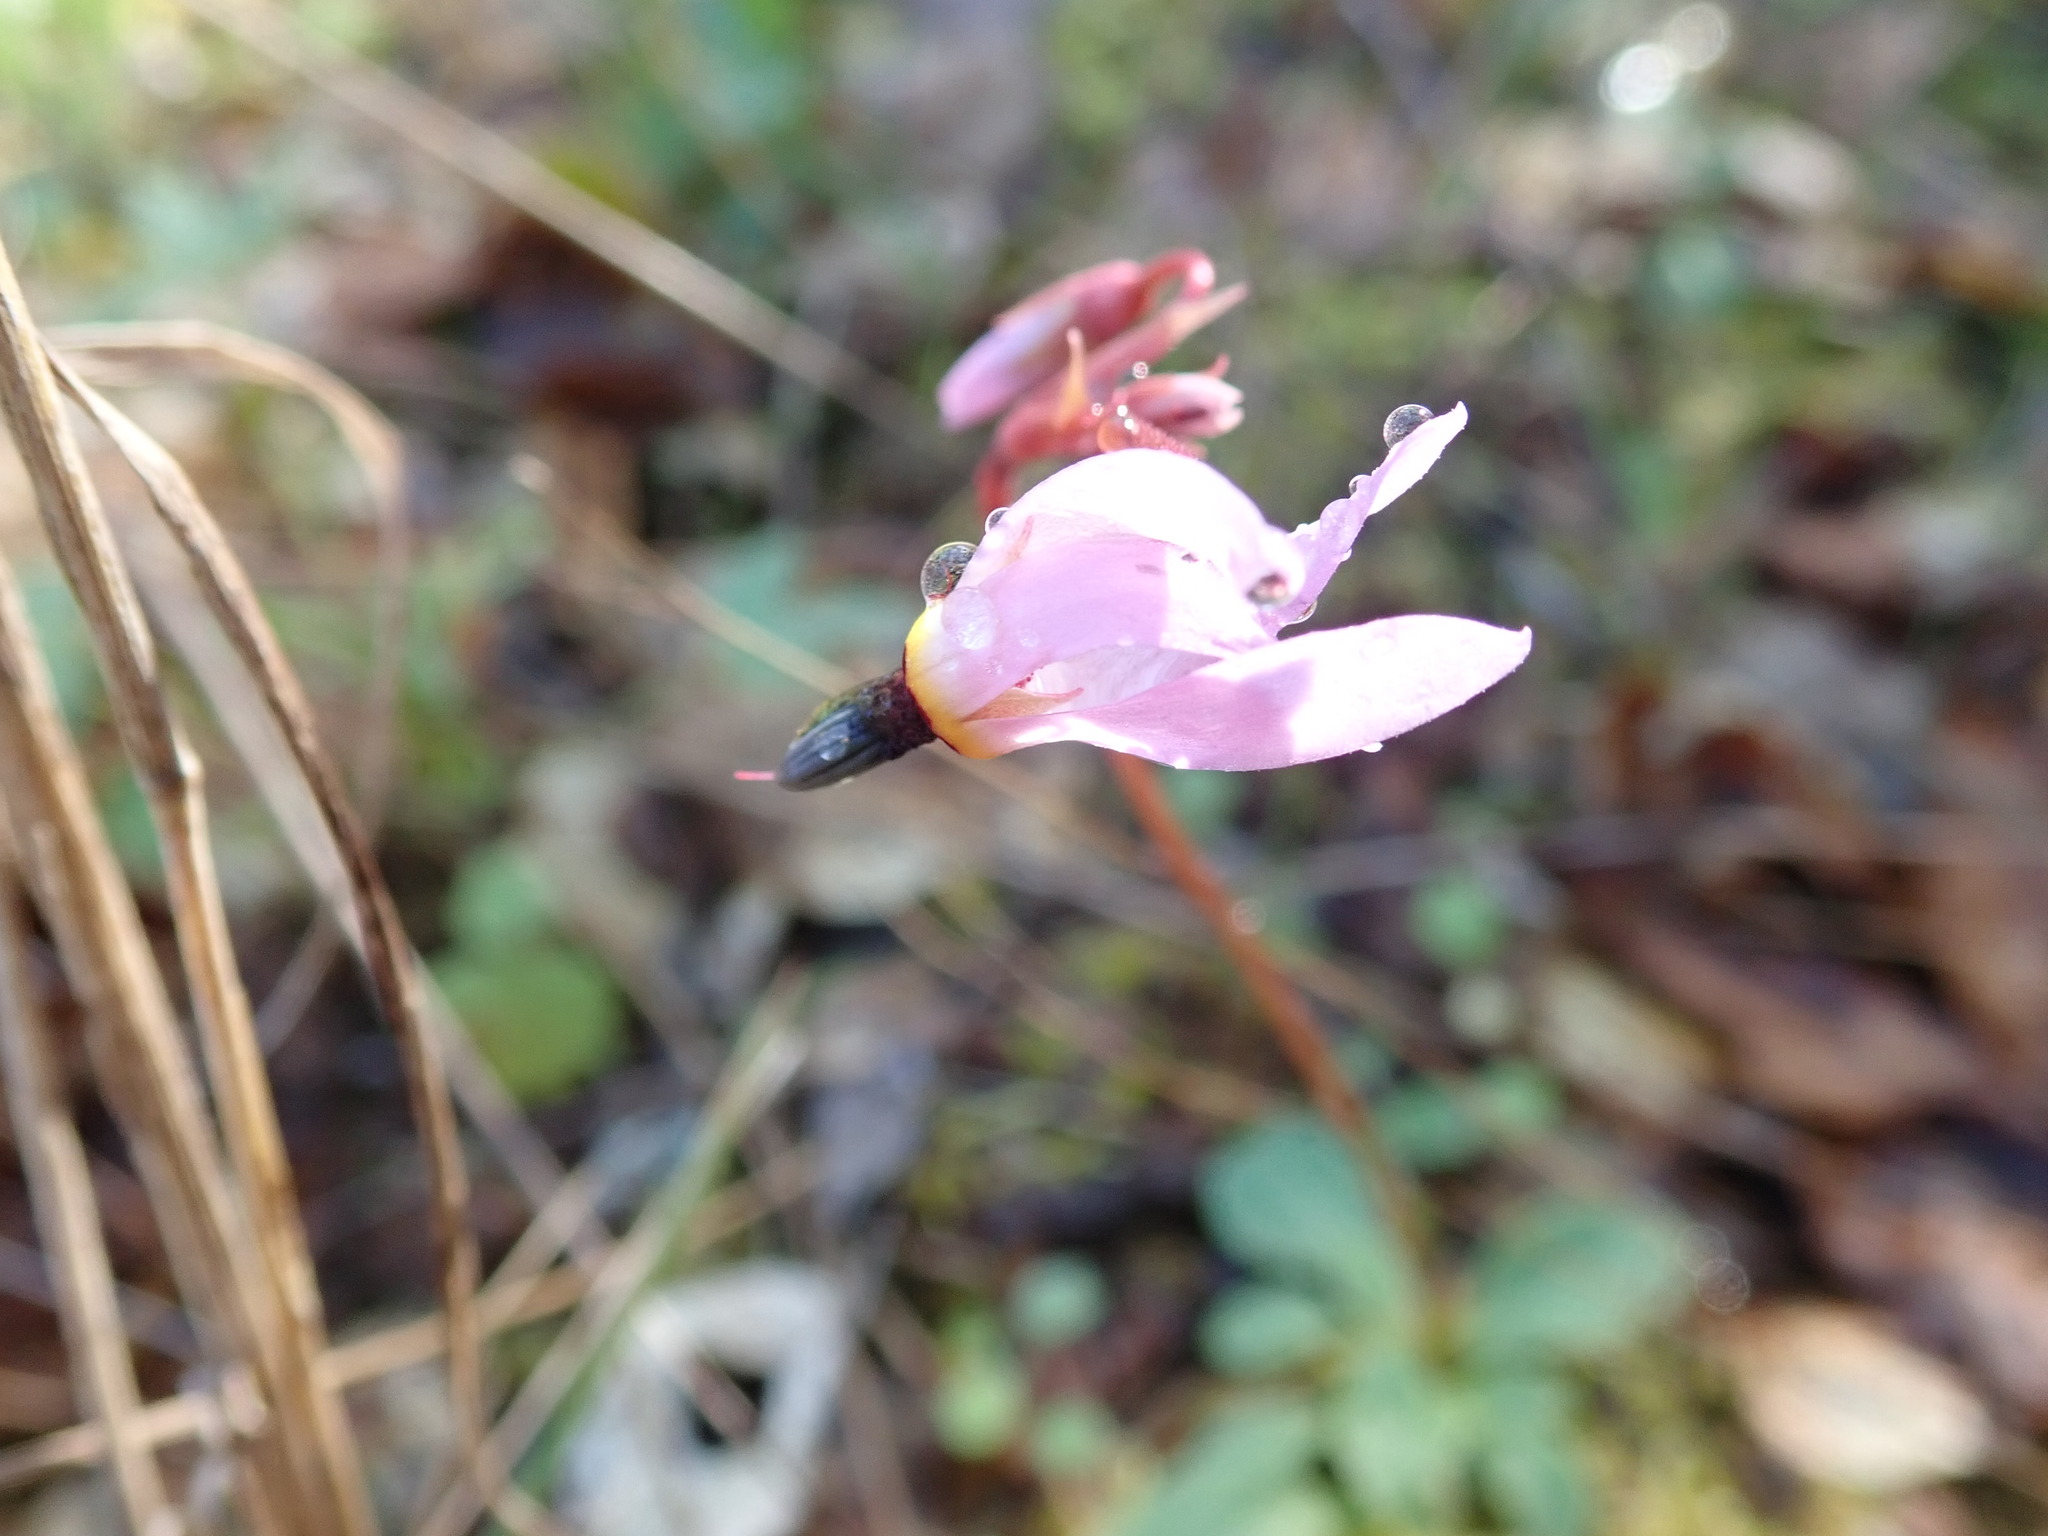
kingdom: Plantae
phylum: Tracheophyta
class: Magnoliopsida
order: Ericales
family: Primulaceae
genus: Dodecatheon
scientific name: Dodecatheon hendersonii
